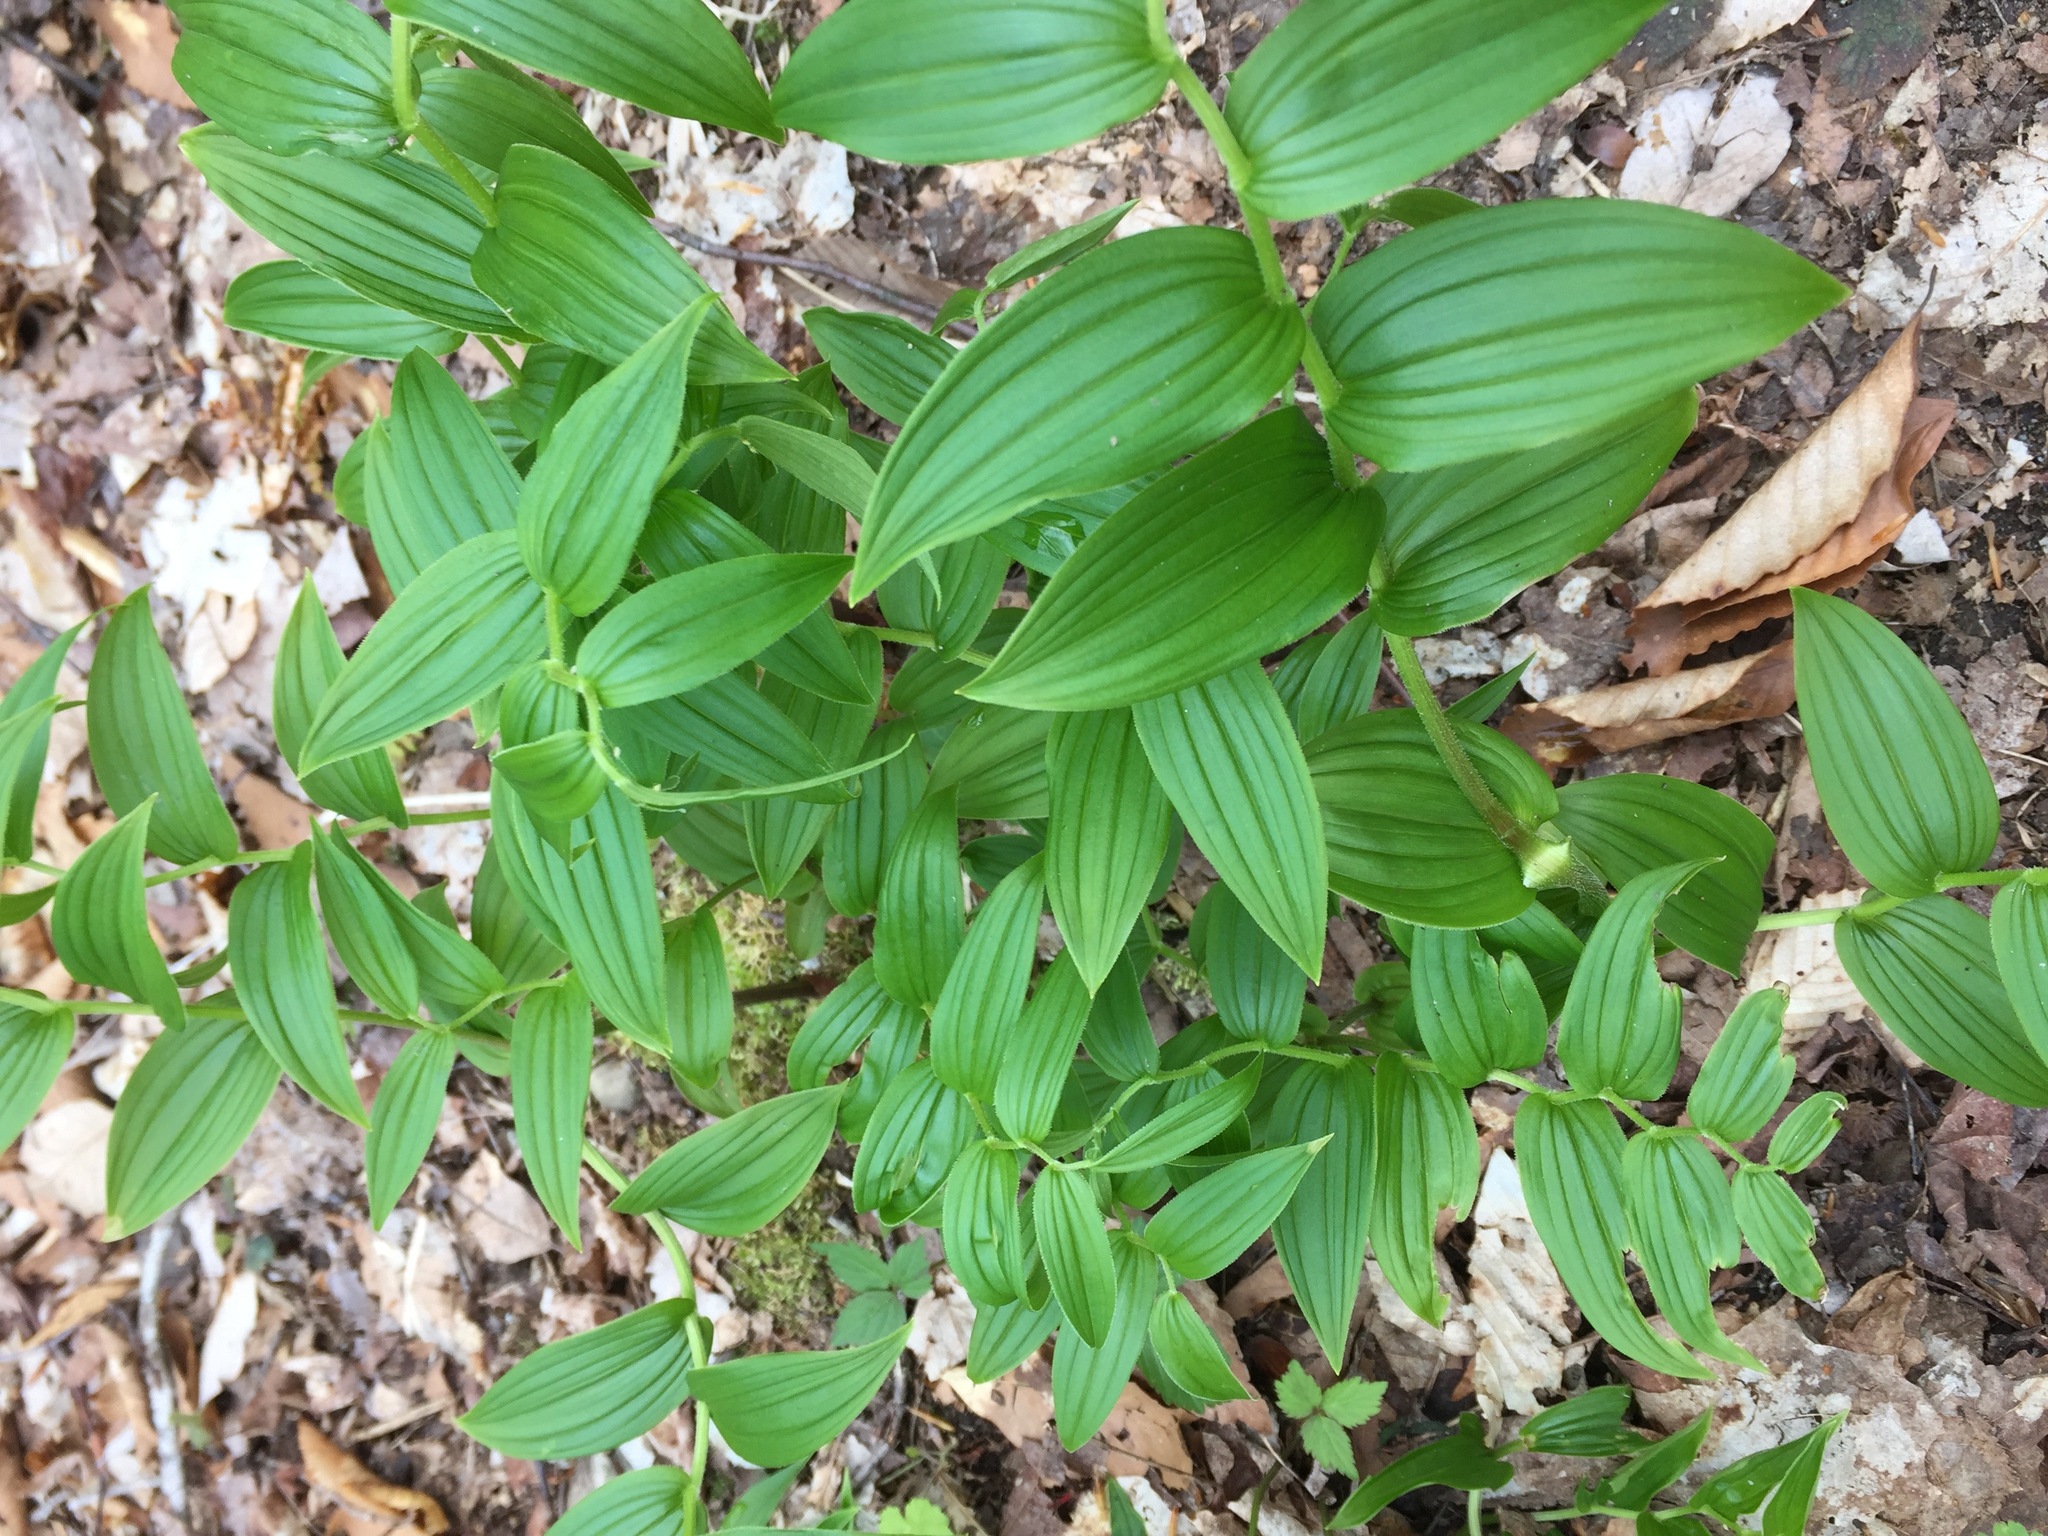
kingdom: Plantae
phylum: Tracheophyta
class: Liliopsida
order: Liliales
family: Liliaceae
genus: Streptopus
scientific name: Streptopus lanceolatus
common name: Rose mandarin
